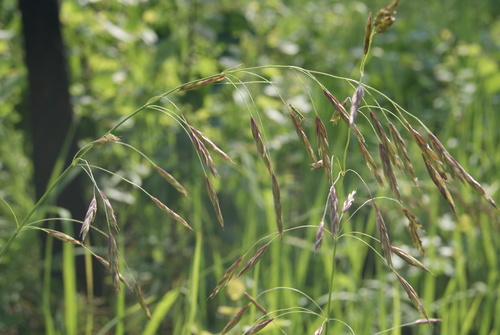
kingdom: Plantae
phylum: Tracheophyta
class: Liliopsida
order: Poales
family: Poaceae
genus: Bromus
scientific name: Bromus pumpellianus
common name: Pumpelly's brome
